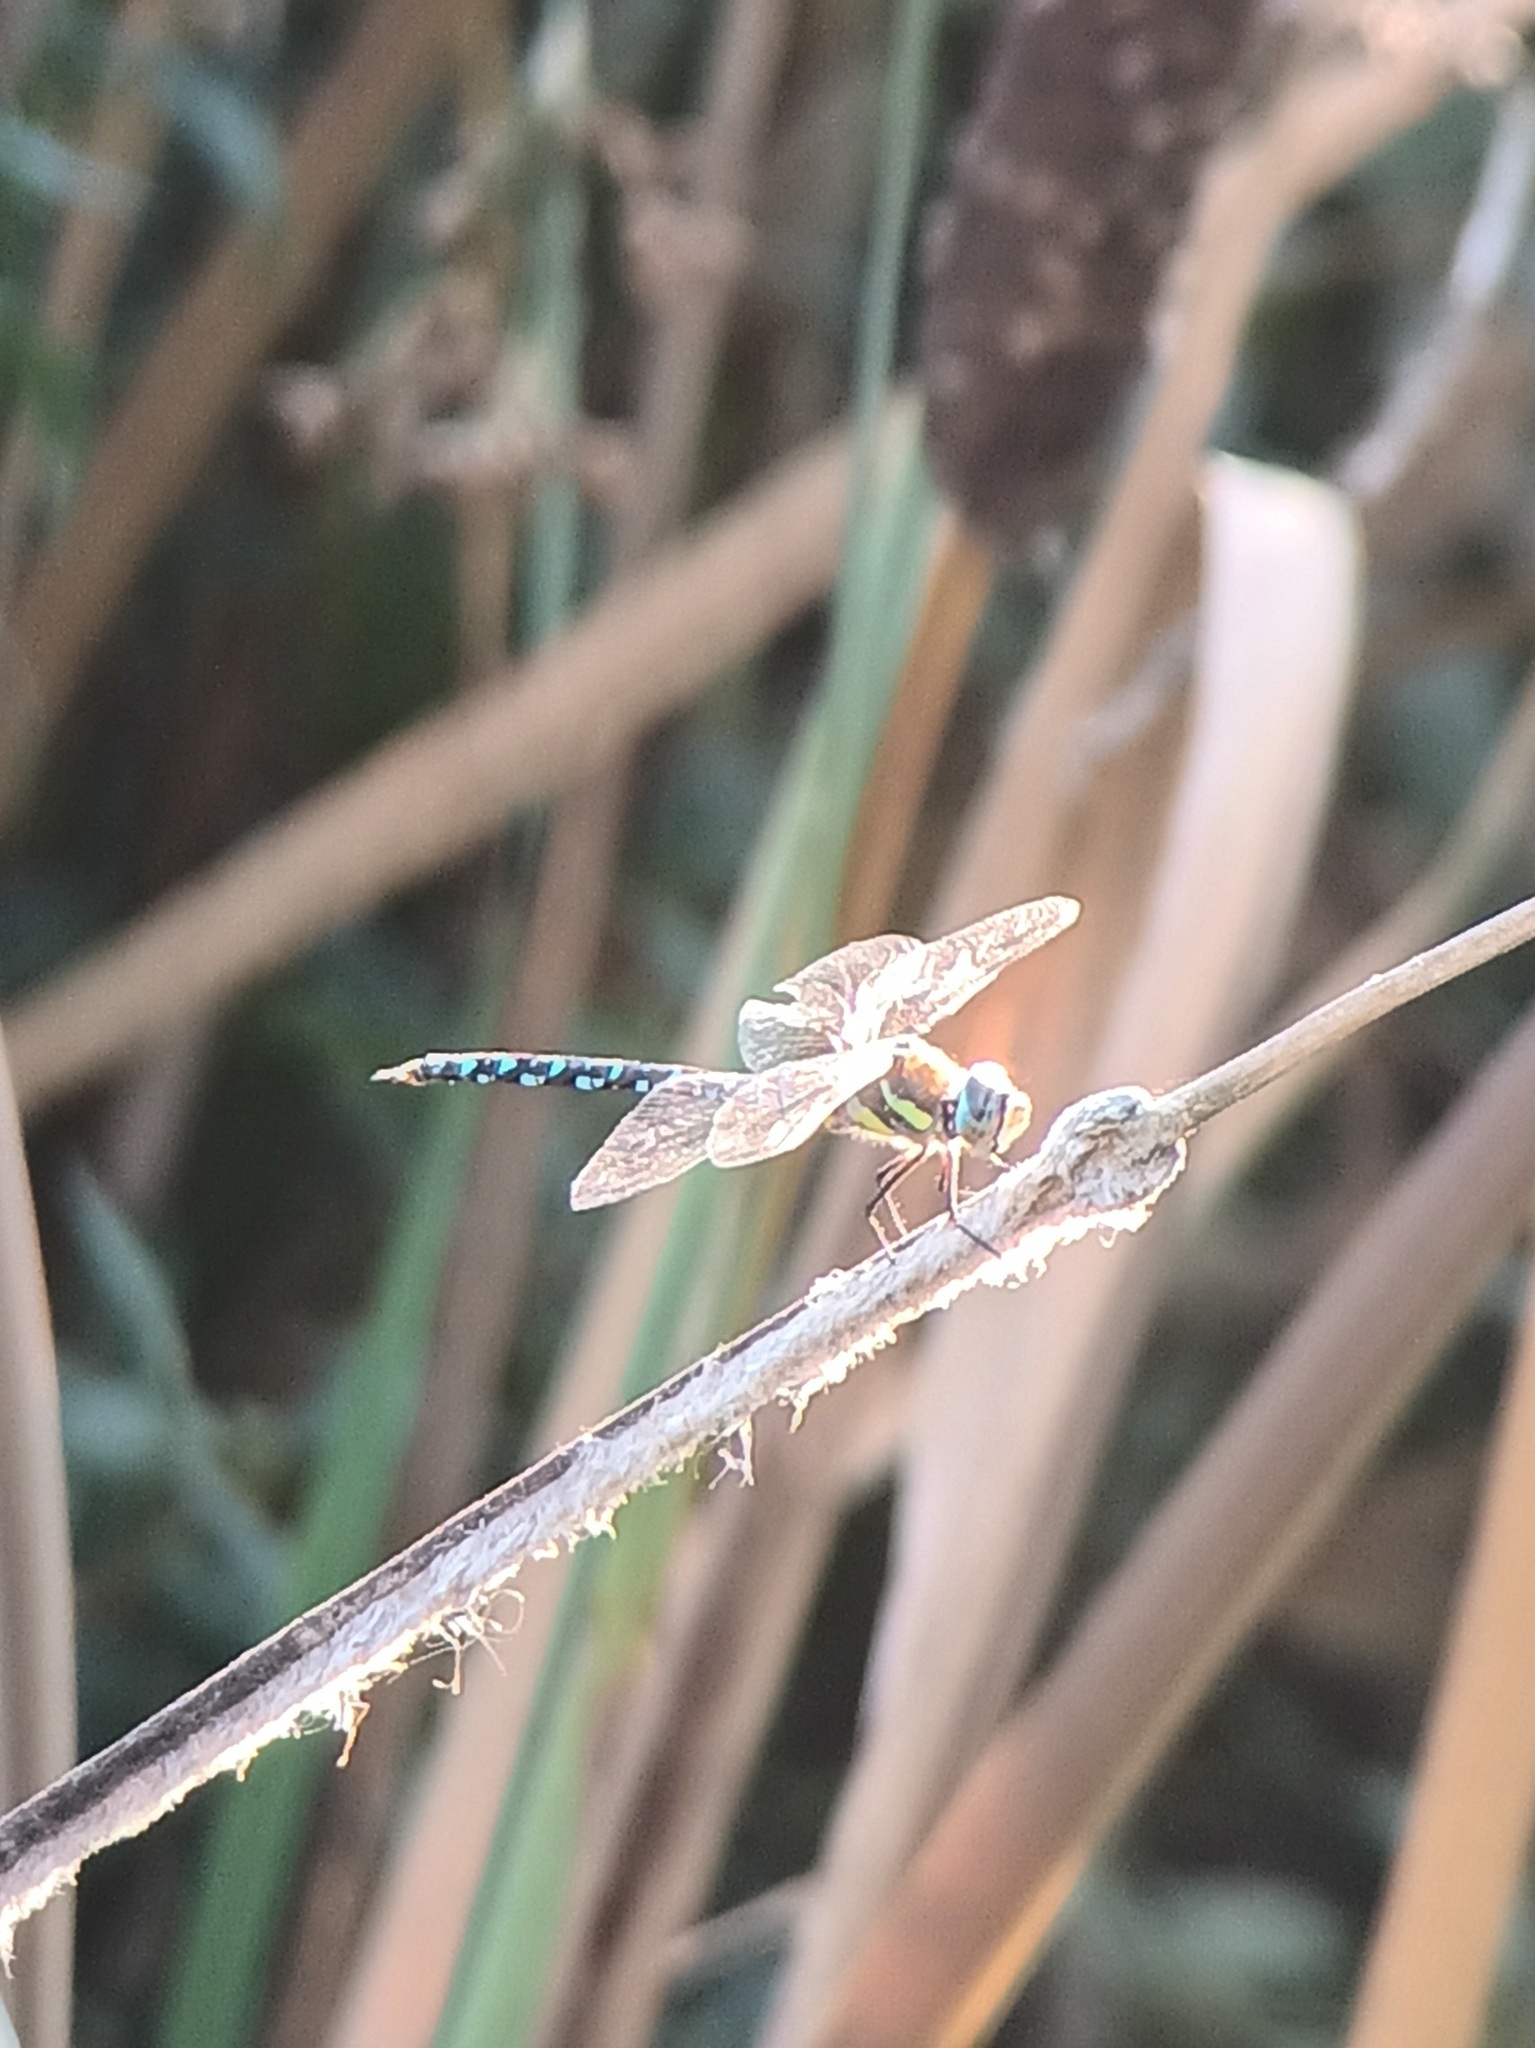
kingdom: Animalia
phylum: Arthropoda
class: Insecta
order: Odonata
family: Aeshnidae
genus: Aeshna
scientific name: Aeshna mixta
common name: Migrant hawker
